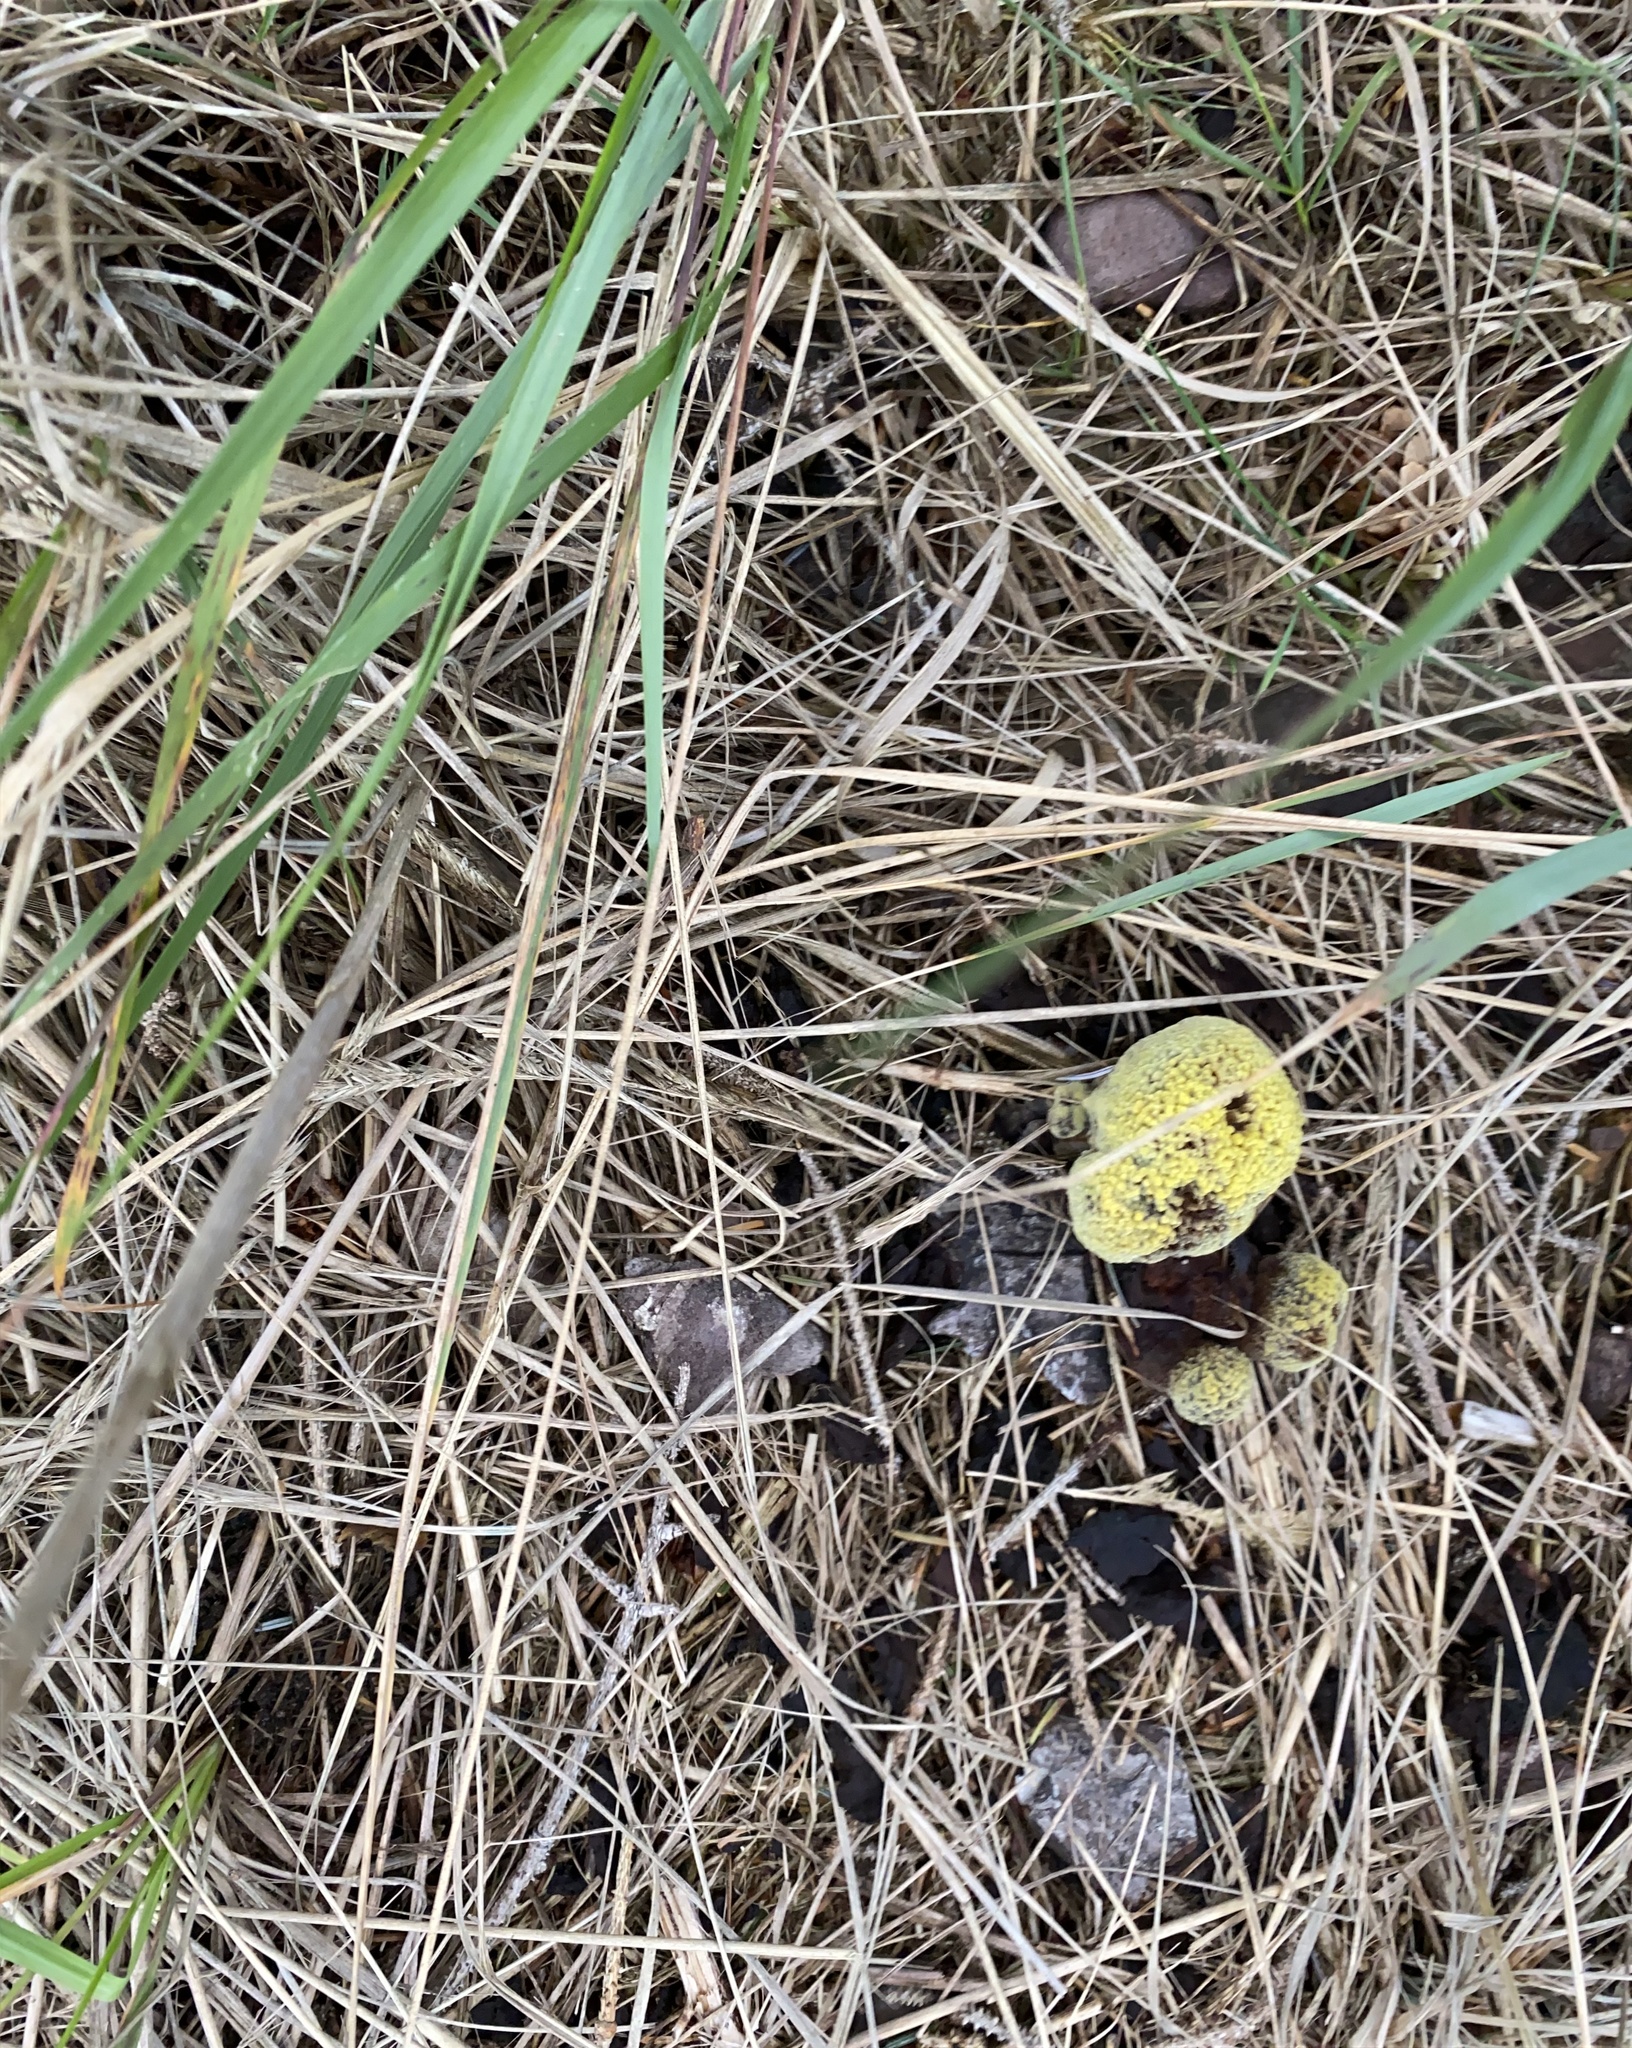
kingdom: Fungi
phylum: Basidiomycota
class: Agaricomycetes
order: Polyporales
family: Laetiporaceae
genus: Phaeolus
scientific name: Phaeolus schweinitzii
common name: Dyer's mazegill
